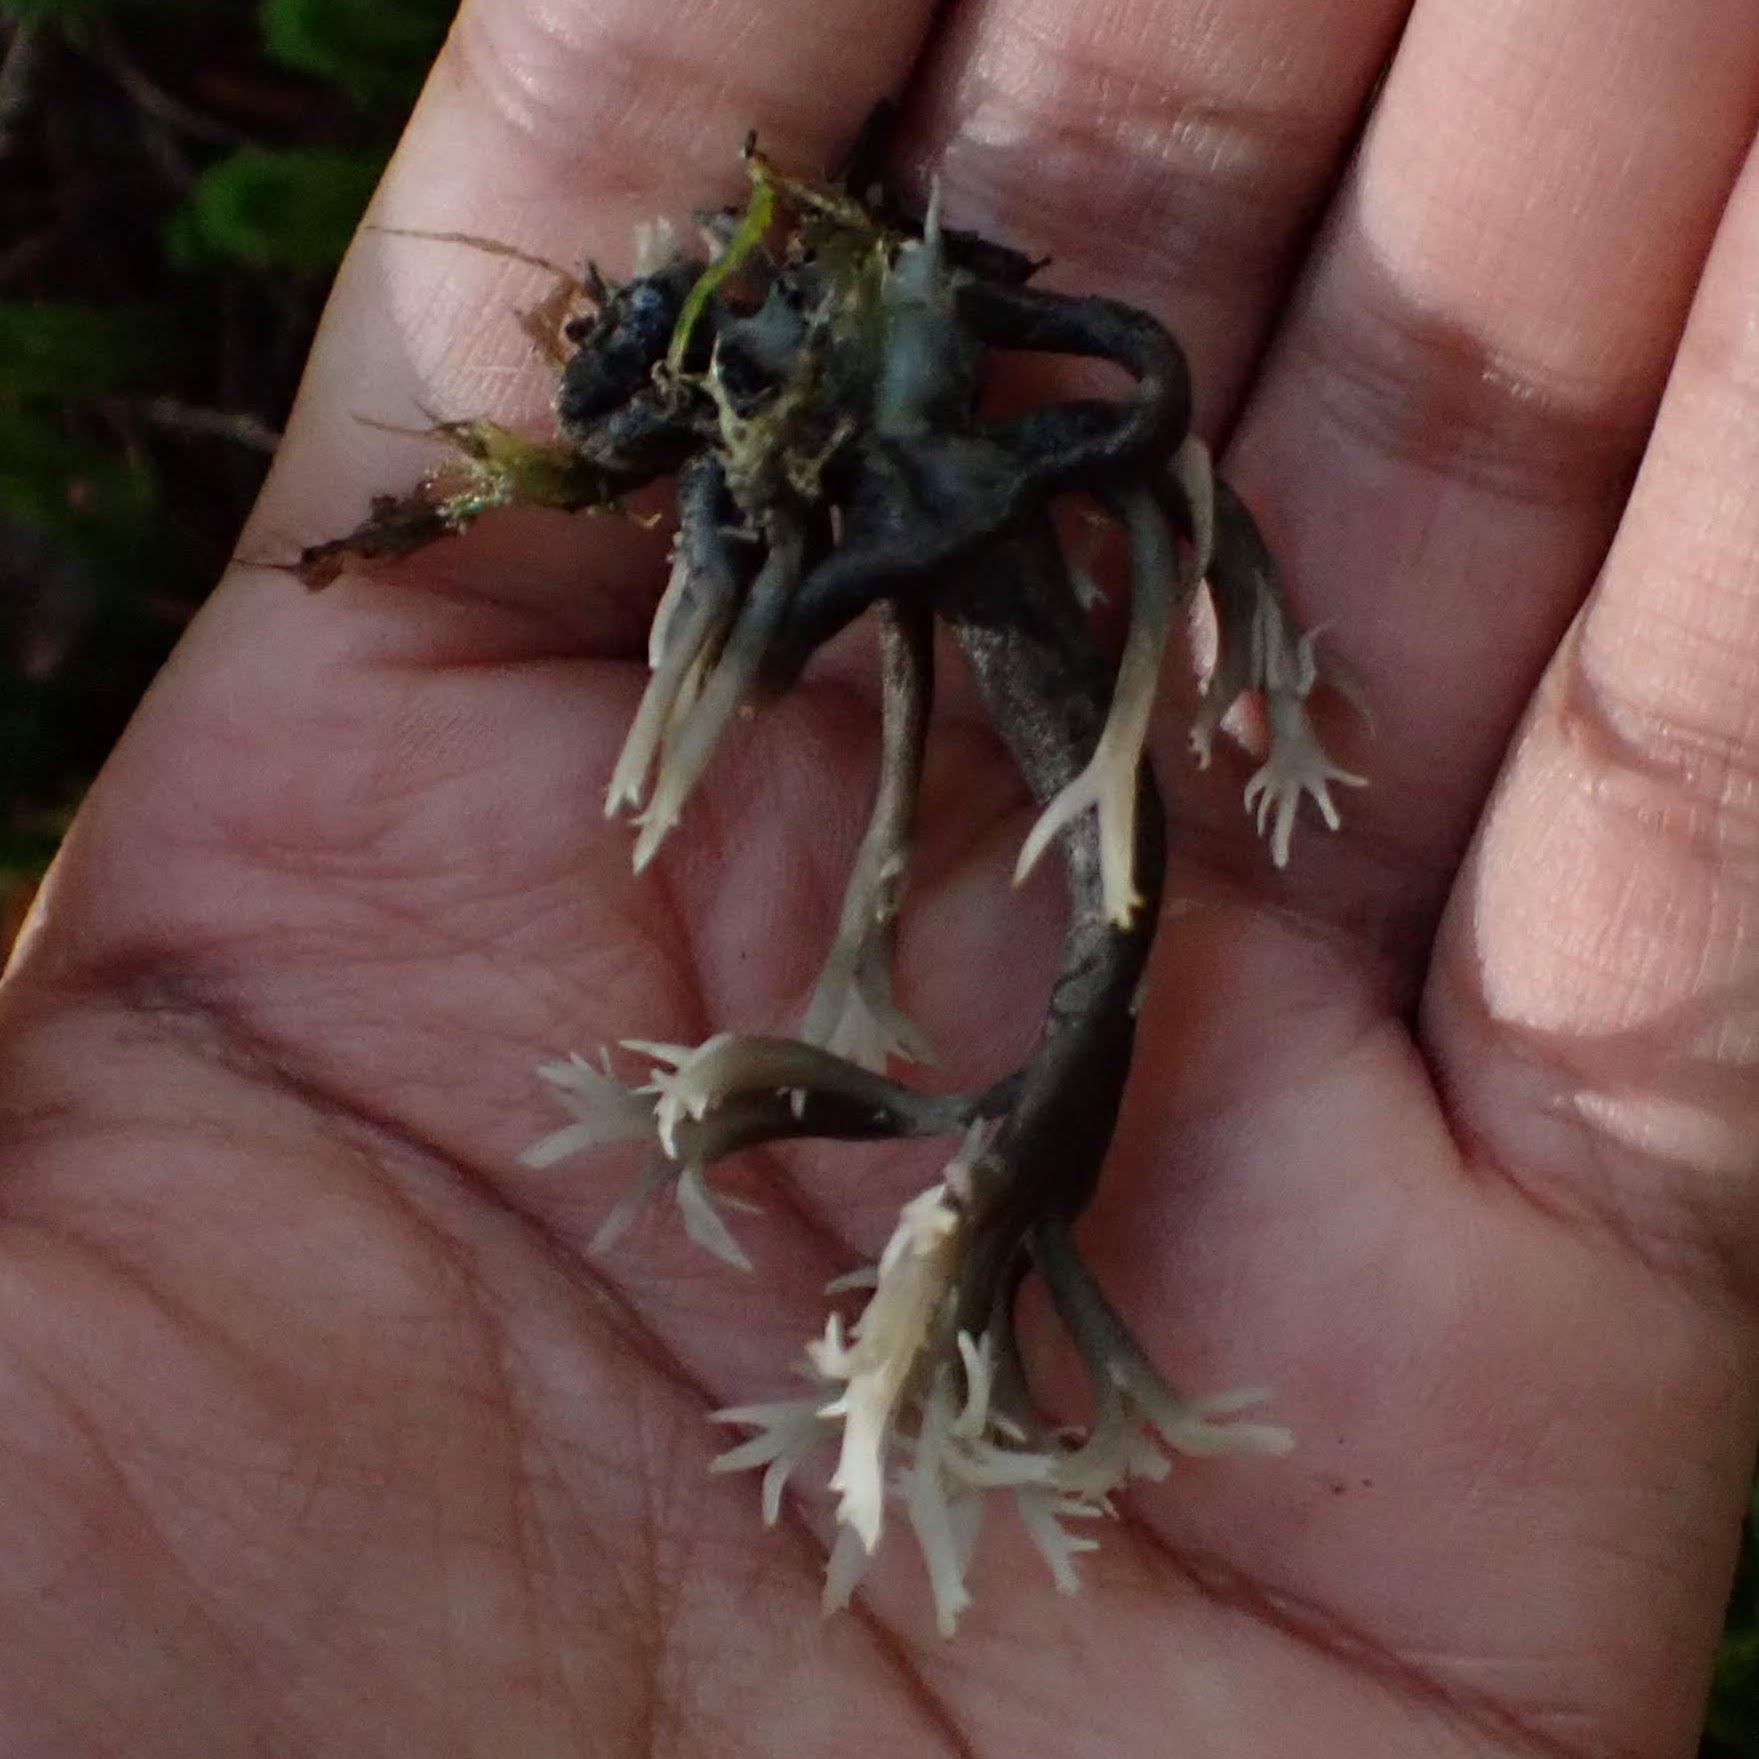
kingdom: Fungi
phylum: Ascomycota
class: Sordariomycetes
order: Sordariales
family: Helminthosphaeriaceae
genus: Helminthosphaeria
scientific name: Helminthosphaeria clavariarum
